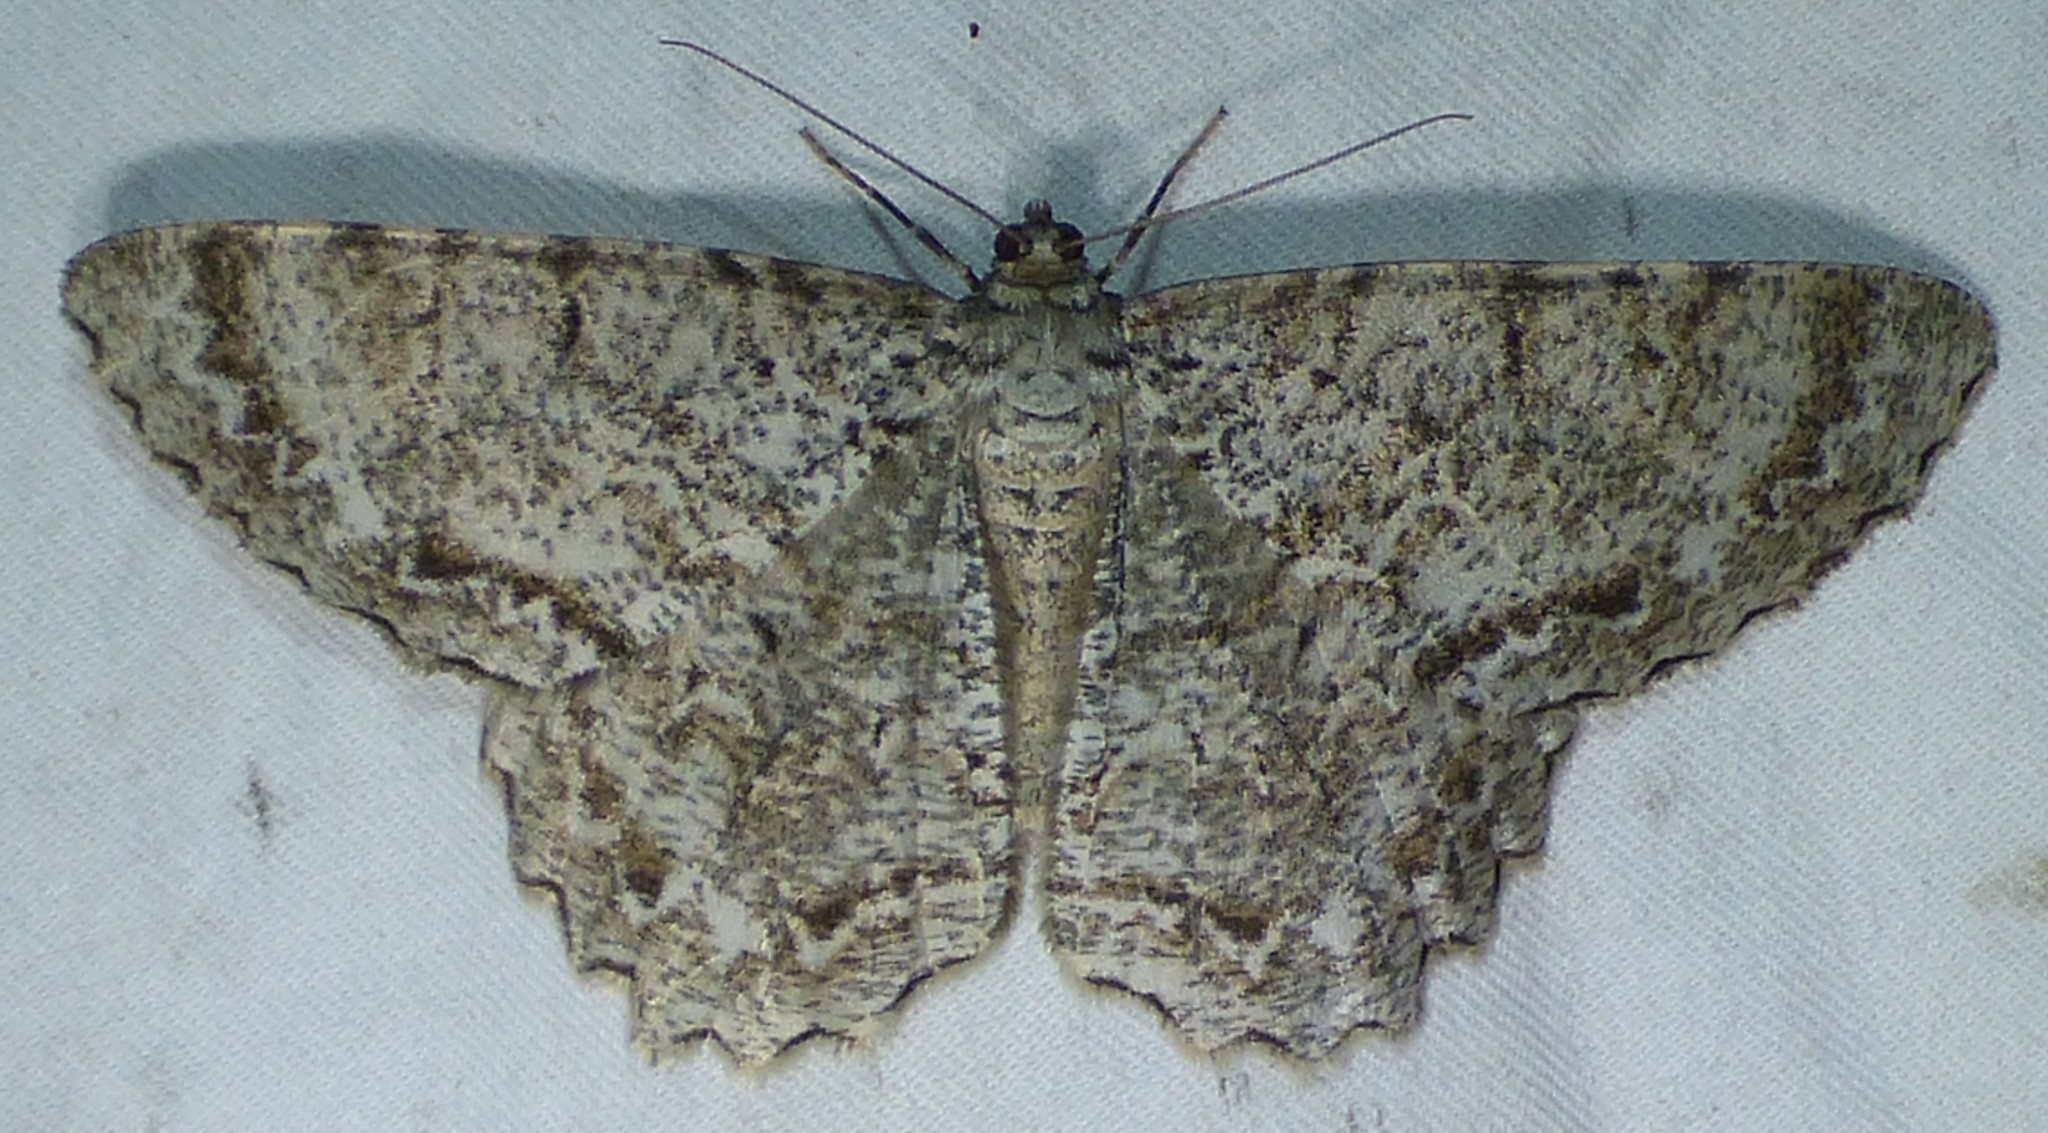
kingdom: Animalia
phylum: Arthropoda
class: Insecta
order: Lepidoptera
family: Geometridae
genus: Epimecis
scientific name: Epimecis hortaria
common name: Tulip-tree beauty
